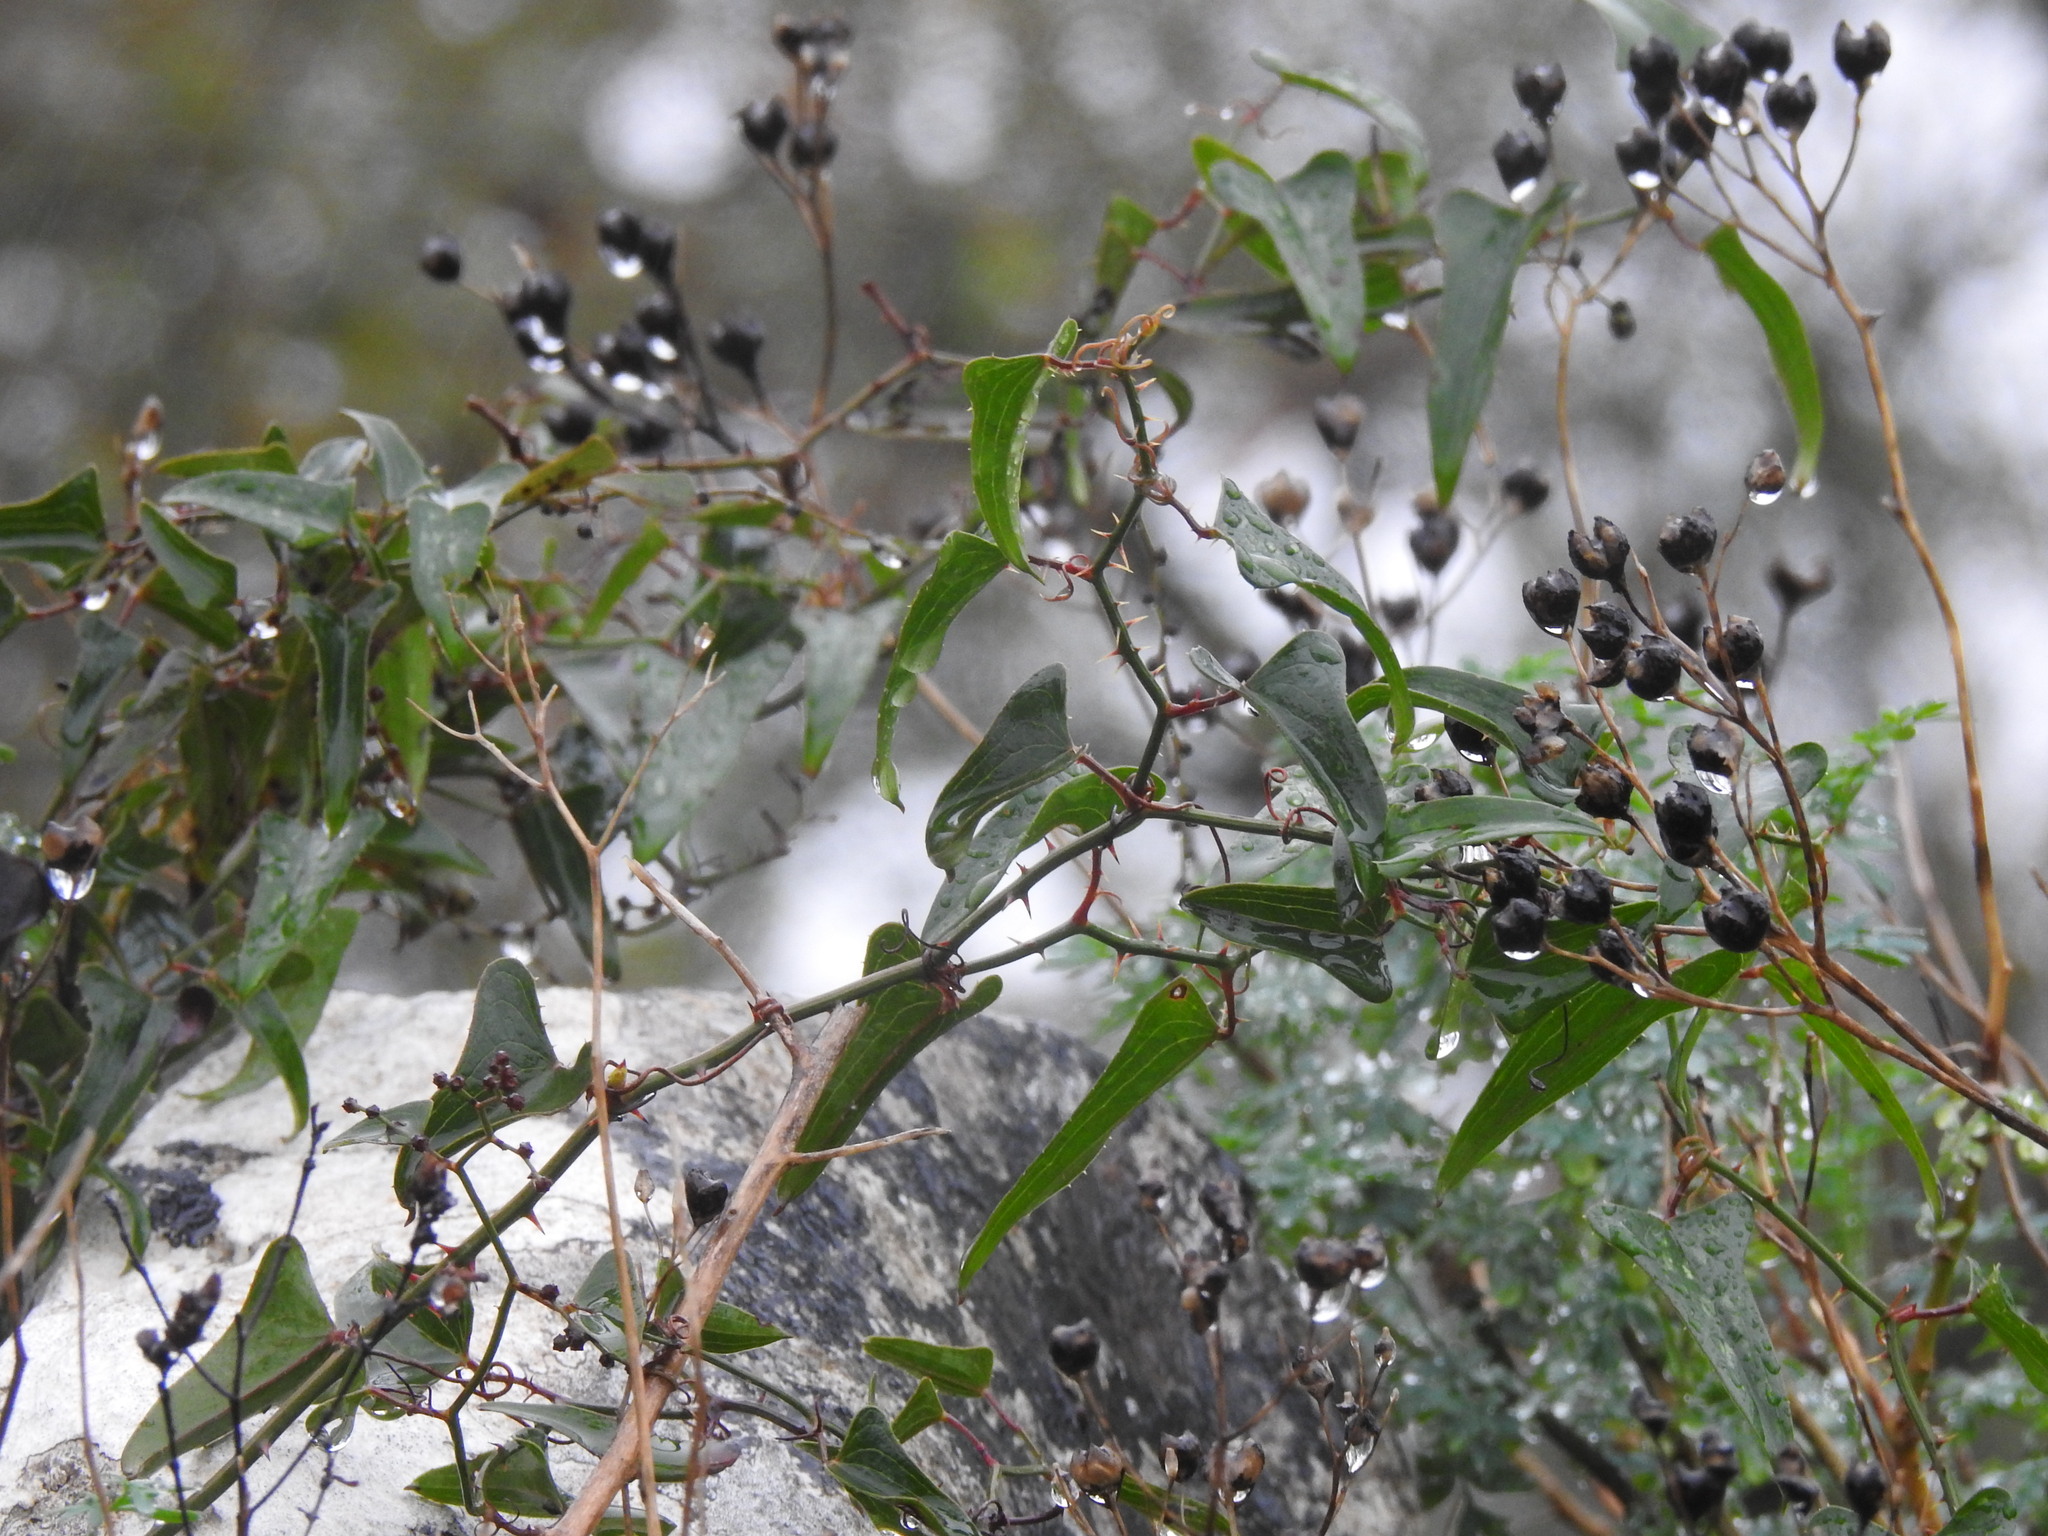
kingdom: Plantae
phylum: Tracheophyta
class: Liliopsida
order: Liliales
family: Smilacaceae
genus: Smilax
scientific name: Smilax aspera
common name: Common smilax
